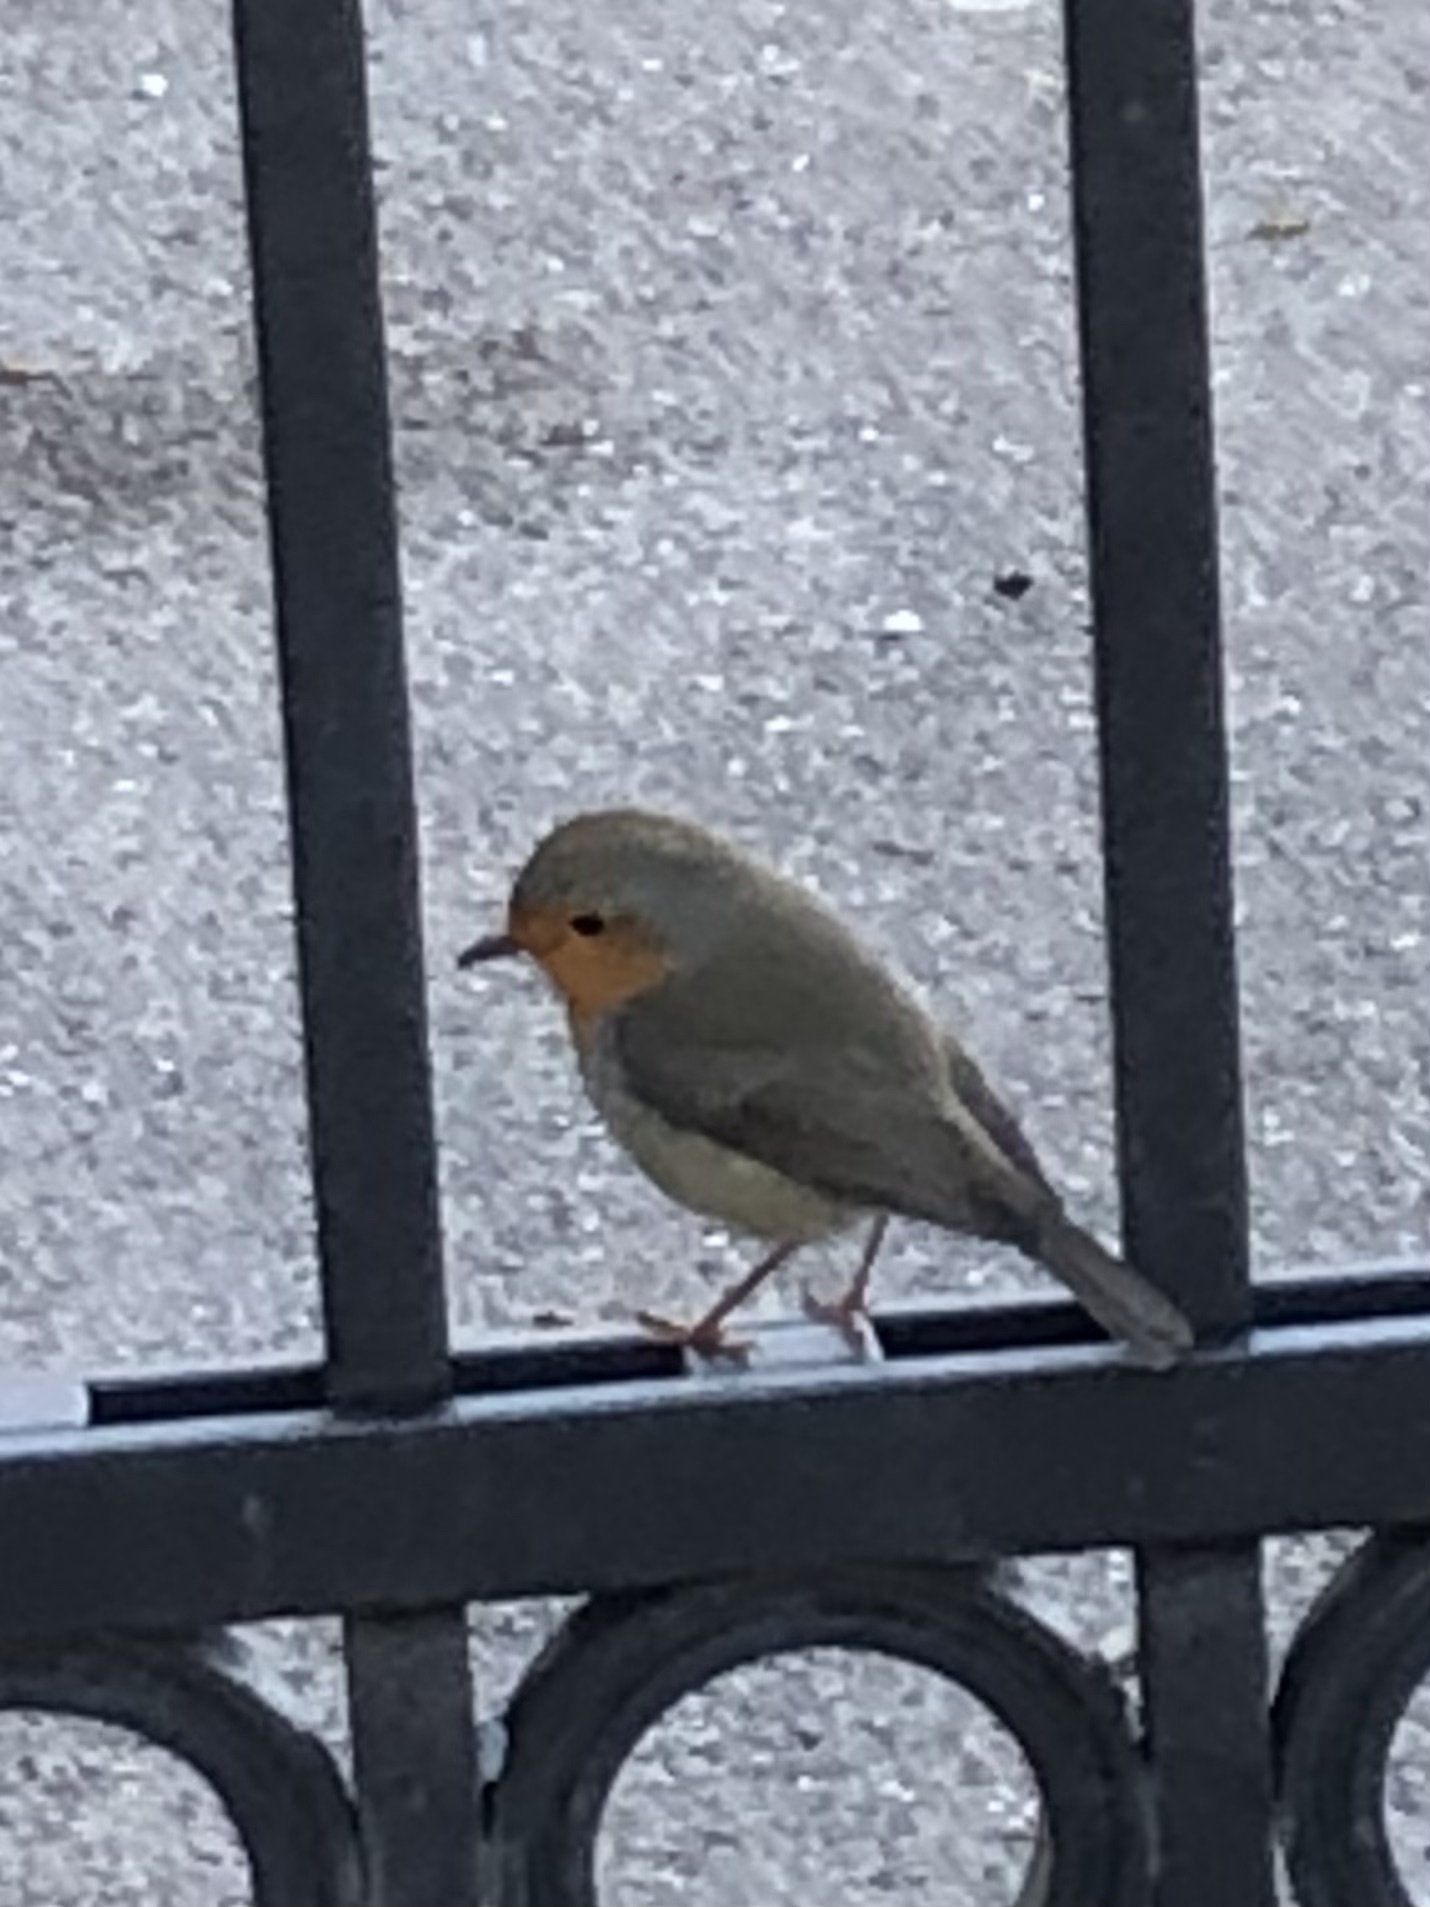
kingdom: Animalia
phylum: Chordata
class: Aves
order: Passeriformes
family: Muscicapidae
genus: Erithacus
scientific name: Erithacus rubecula
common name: European robin
